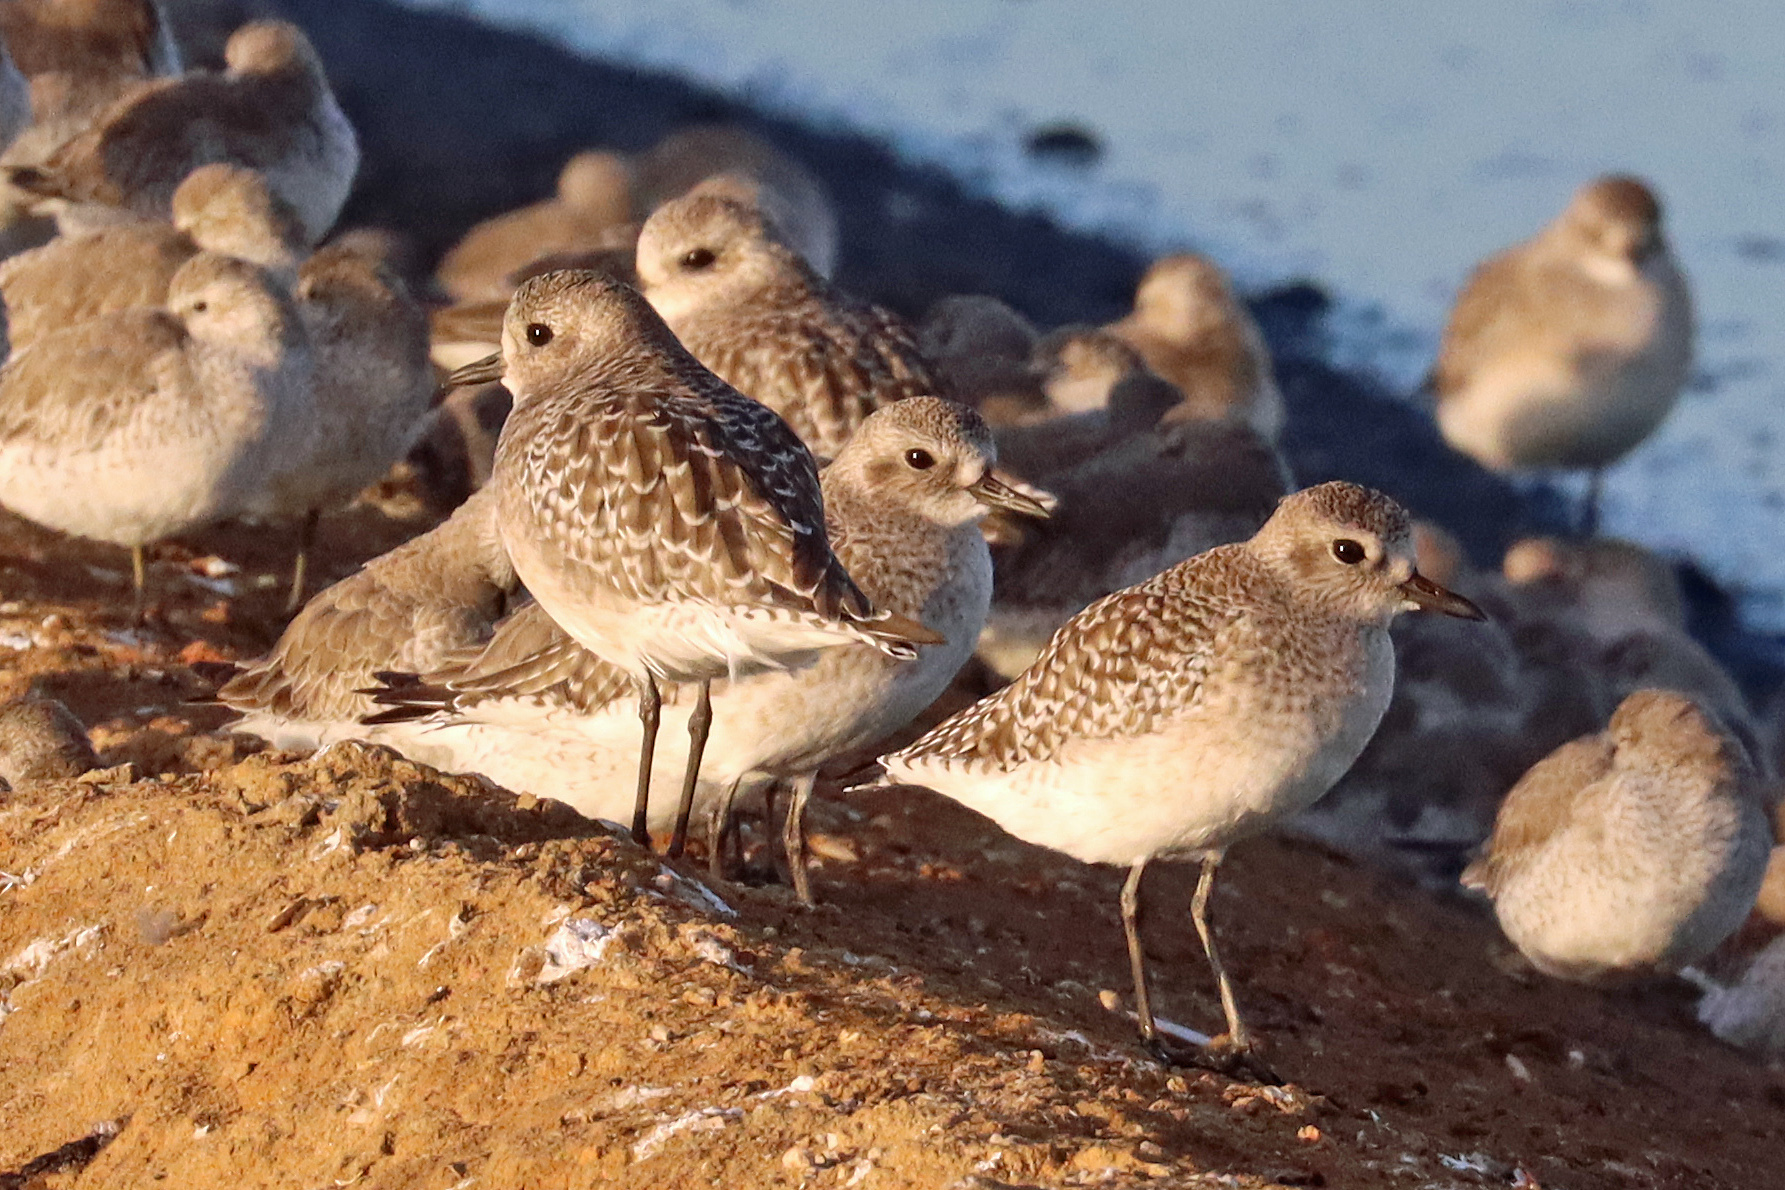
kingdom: Animalia
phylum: Chordata
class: Aves
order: Charadriiformes
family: Charadriidae
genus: Pluvialis
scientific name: Pluvialis squatarola
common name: Grey plover
